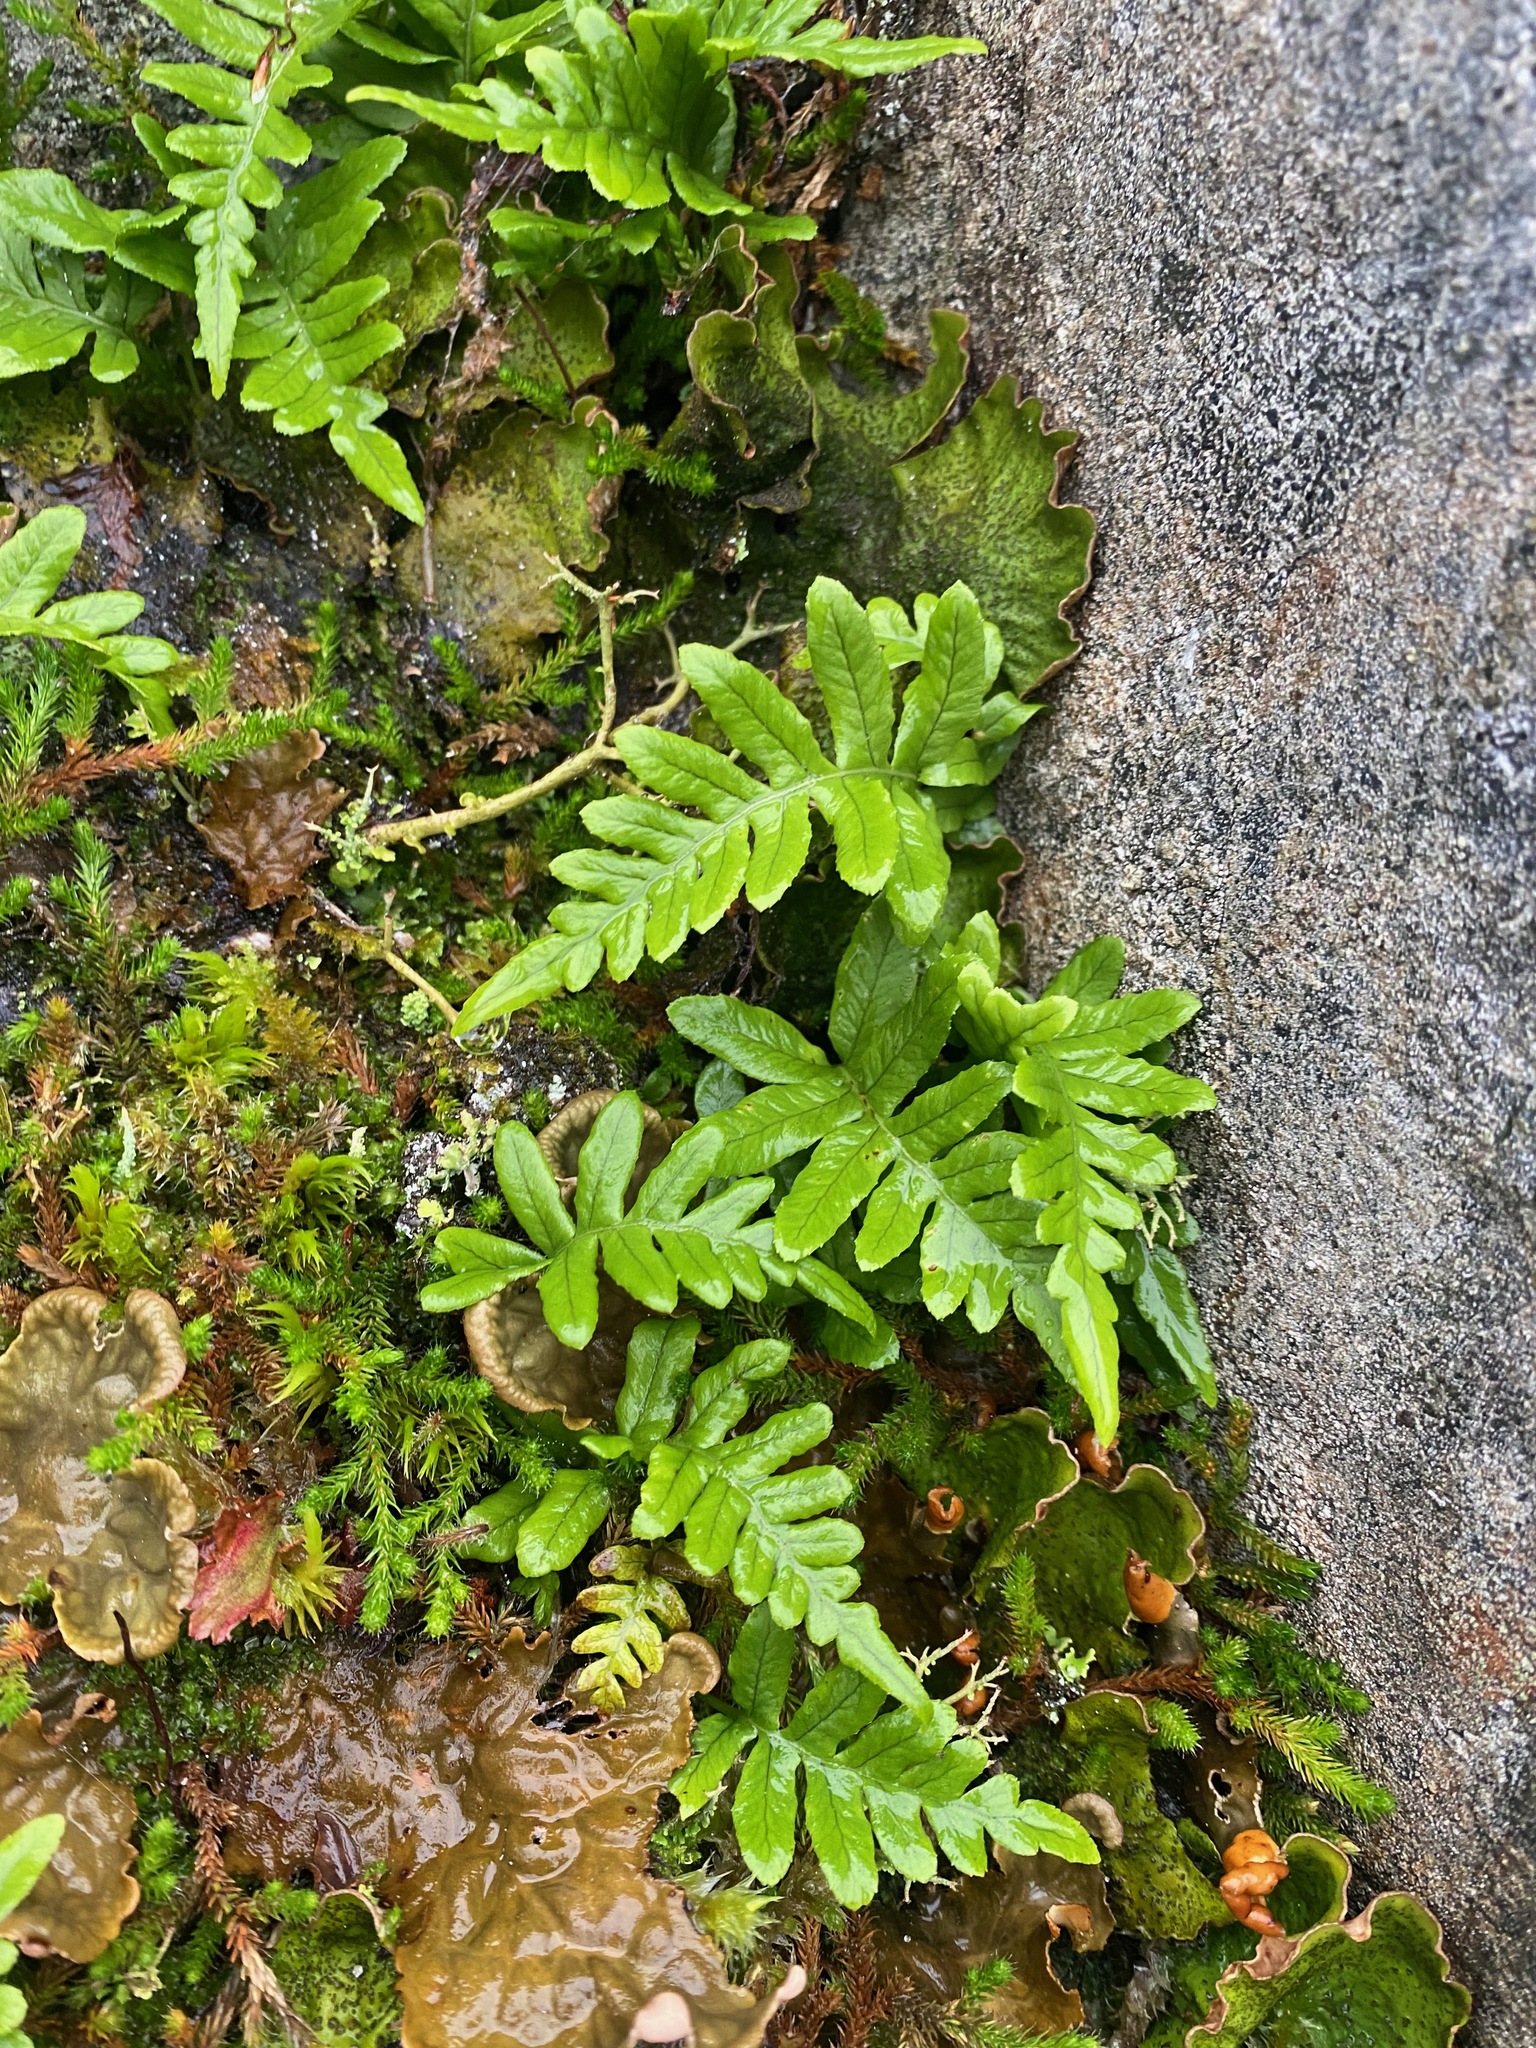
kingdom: Plantae
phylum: Tracheophyta
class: Polypodiopsida
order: Polypodiales
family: Polypodiaceae
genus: Polypodium
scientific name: Polypodium glycyrrhiza
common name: Licorice fern
